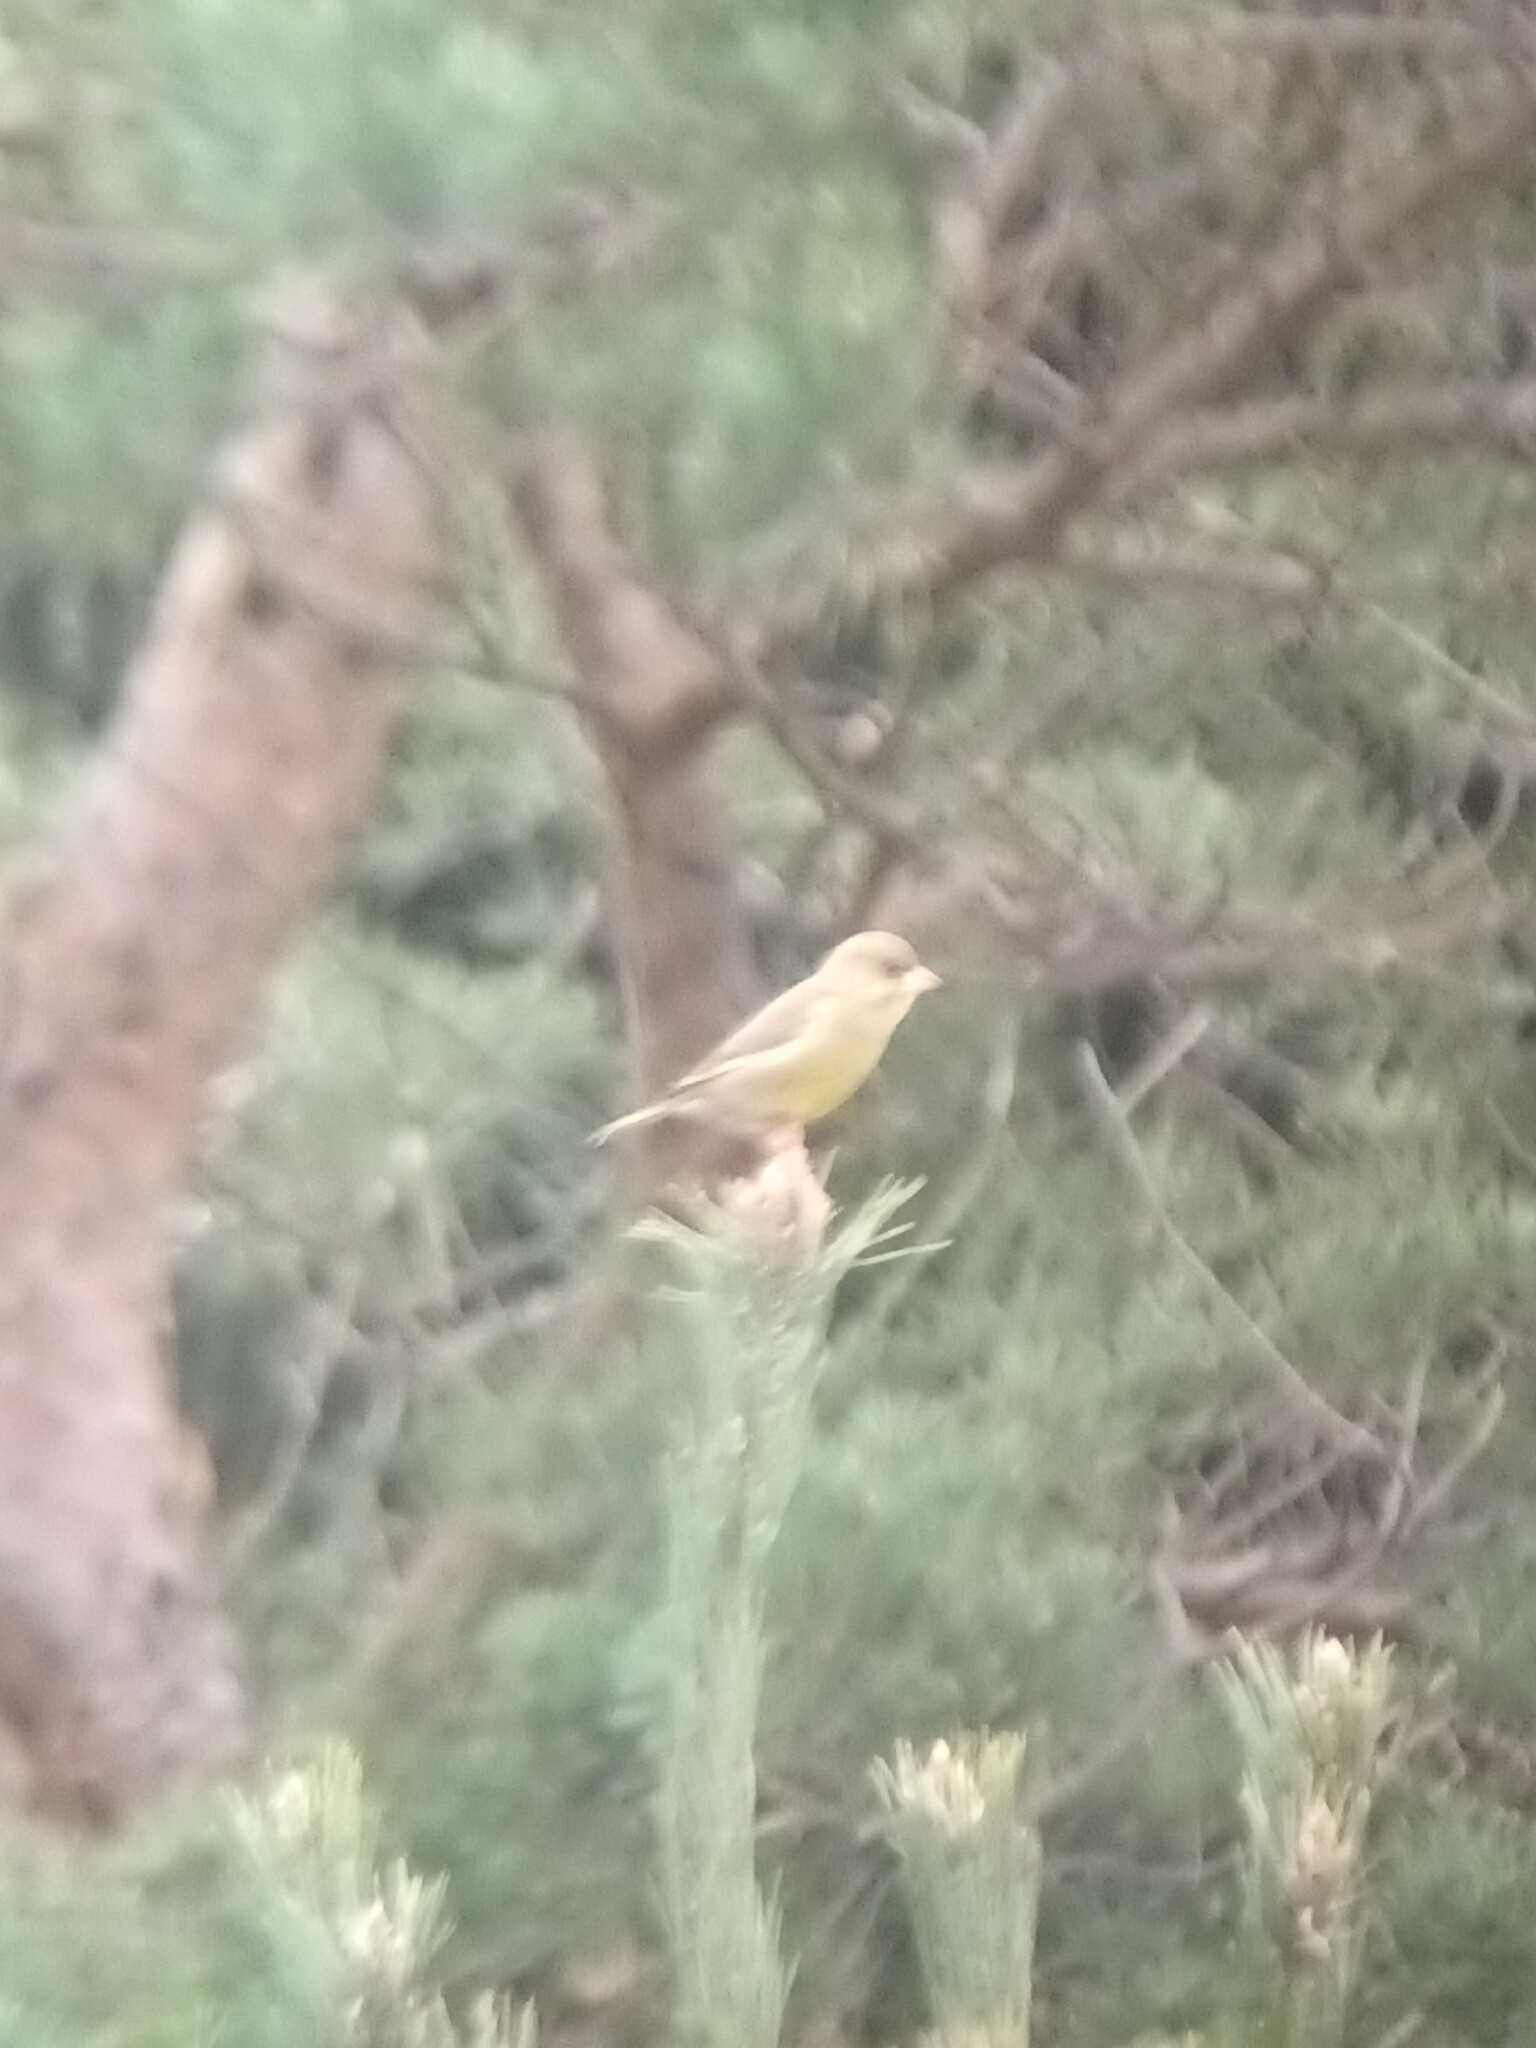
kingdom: Plantae
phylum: Tracheophyta
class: Liliopsida
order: Poales
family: Poaceae
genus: Chloris
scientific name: Chloris chloris
